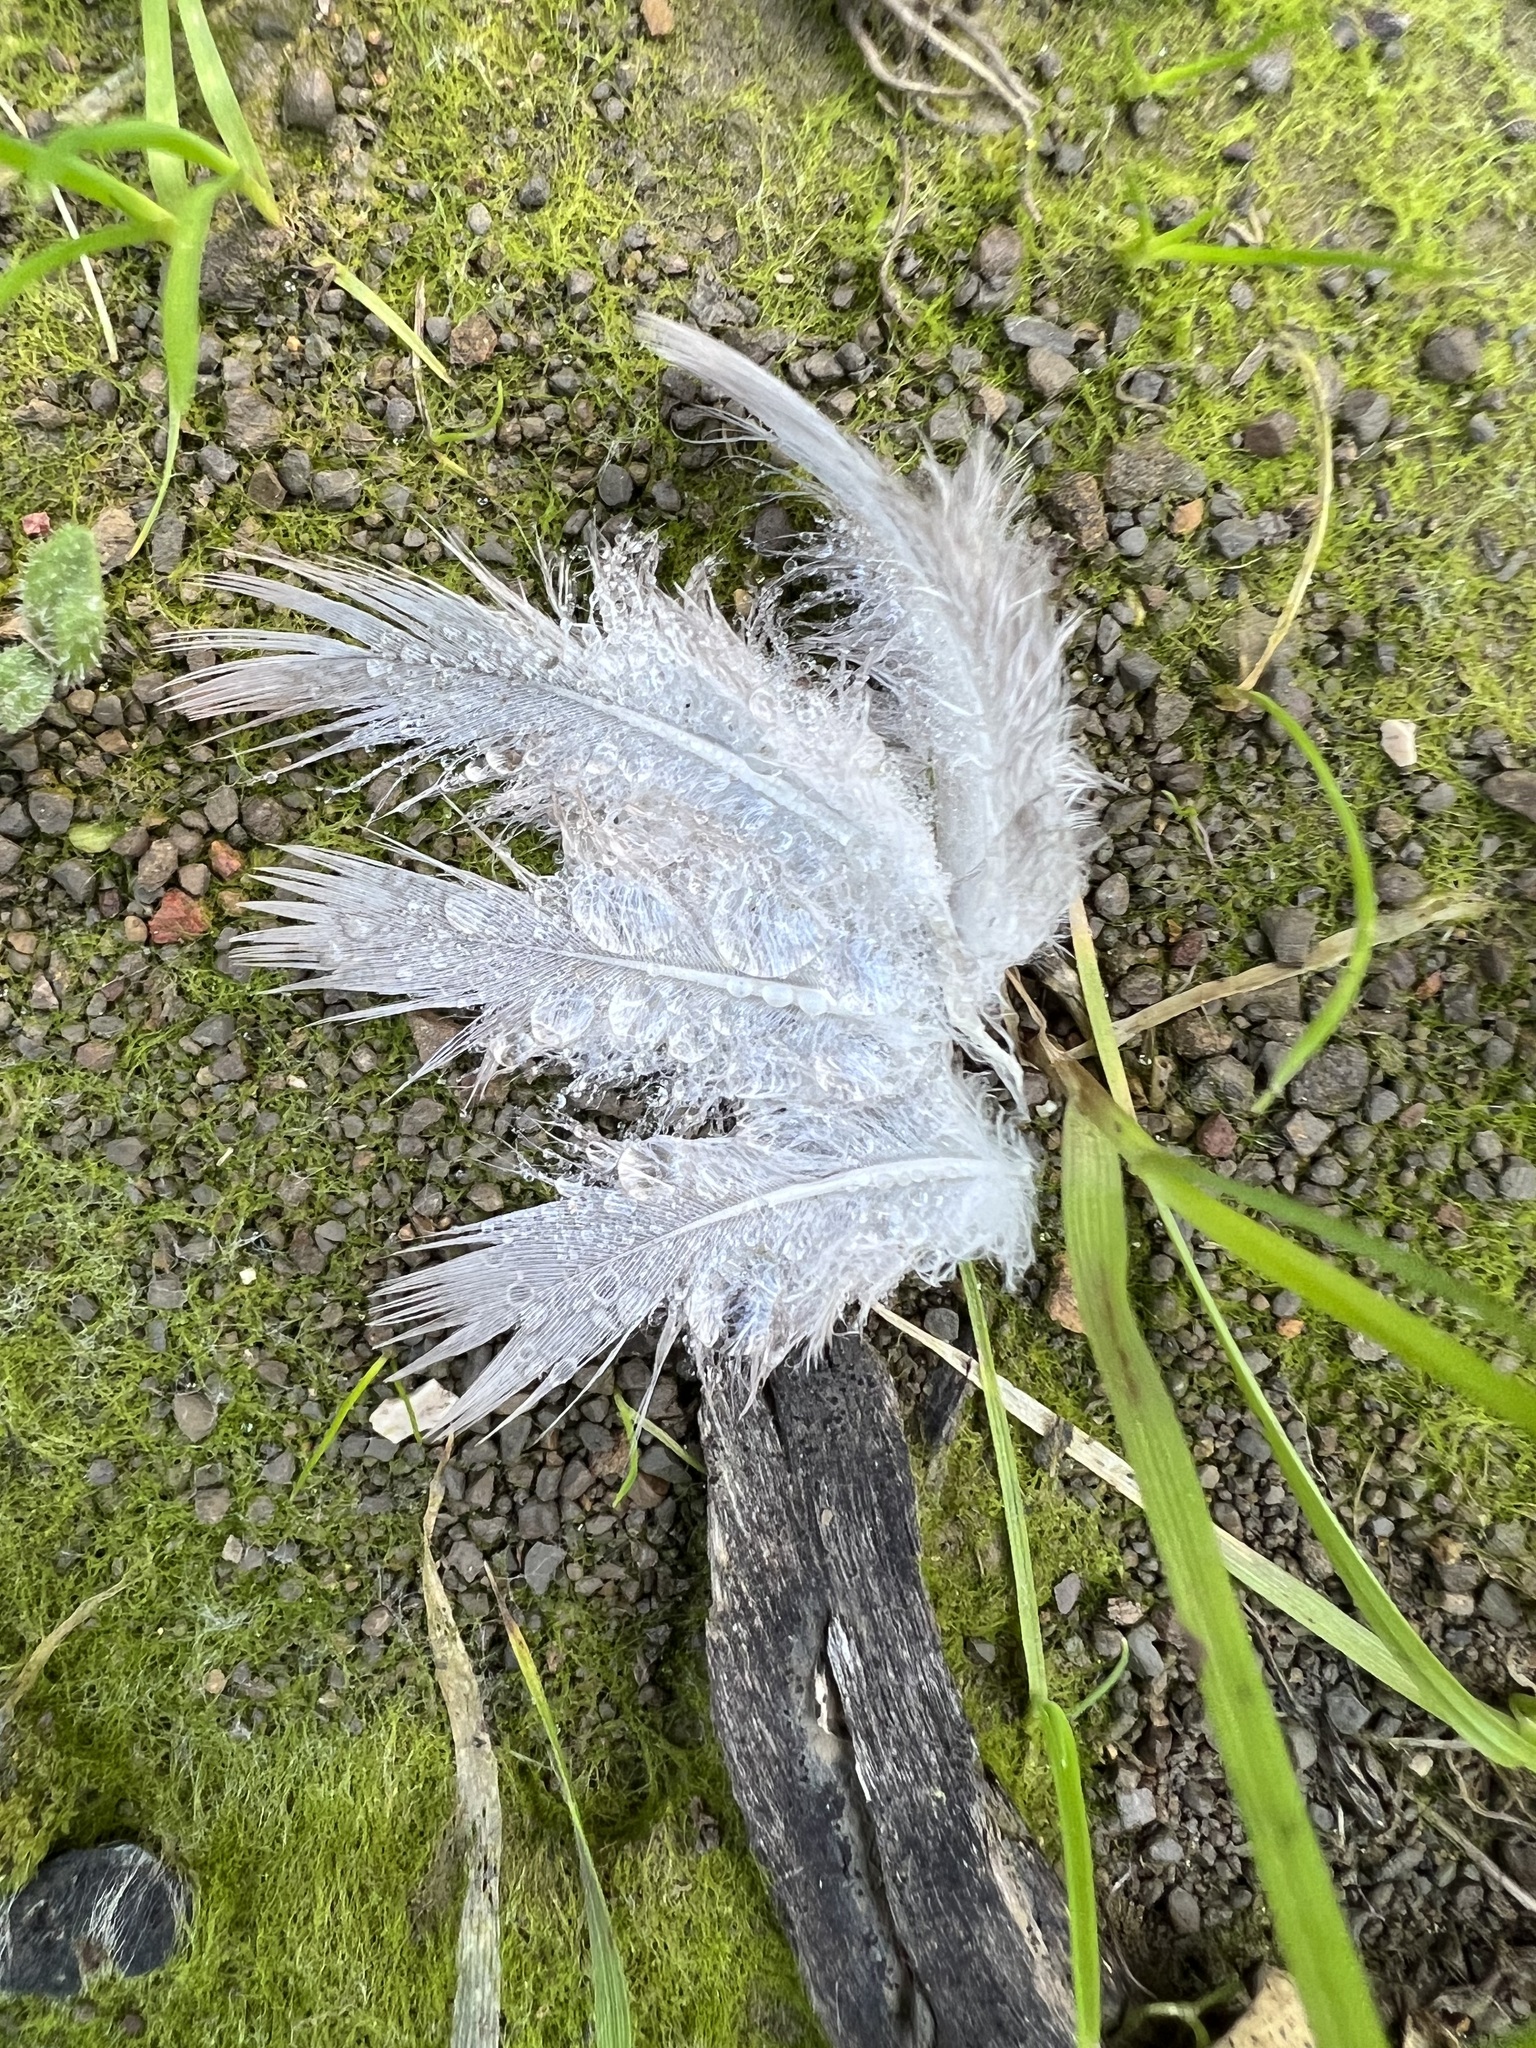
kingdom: Animalia
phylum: Chordata
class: Aves
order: Columbiformes
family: Columbidae
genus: Patagioenas
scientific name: Patagioenas fasciata
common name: Band-tailed pigeon
